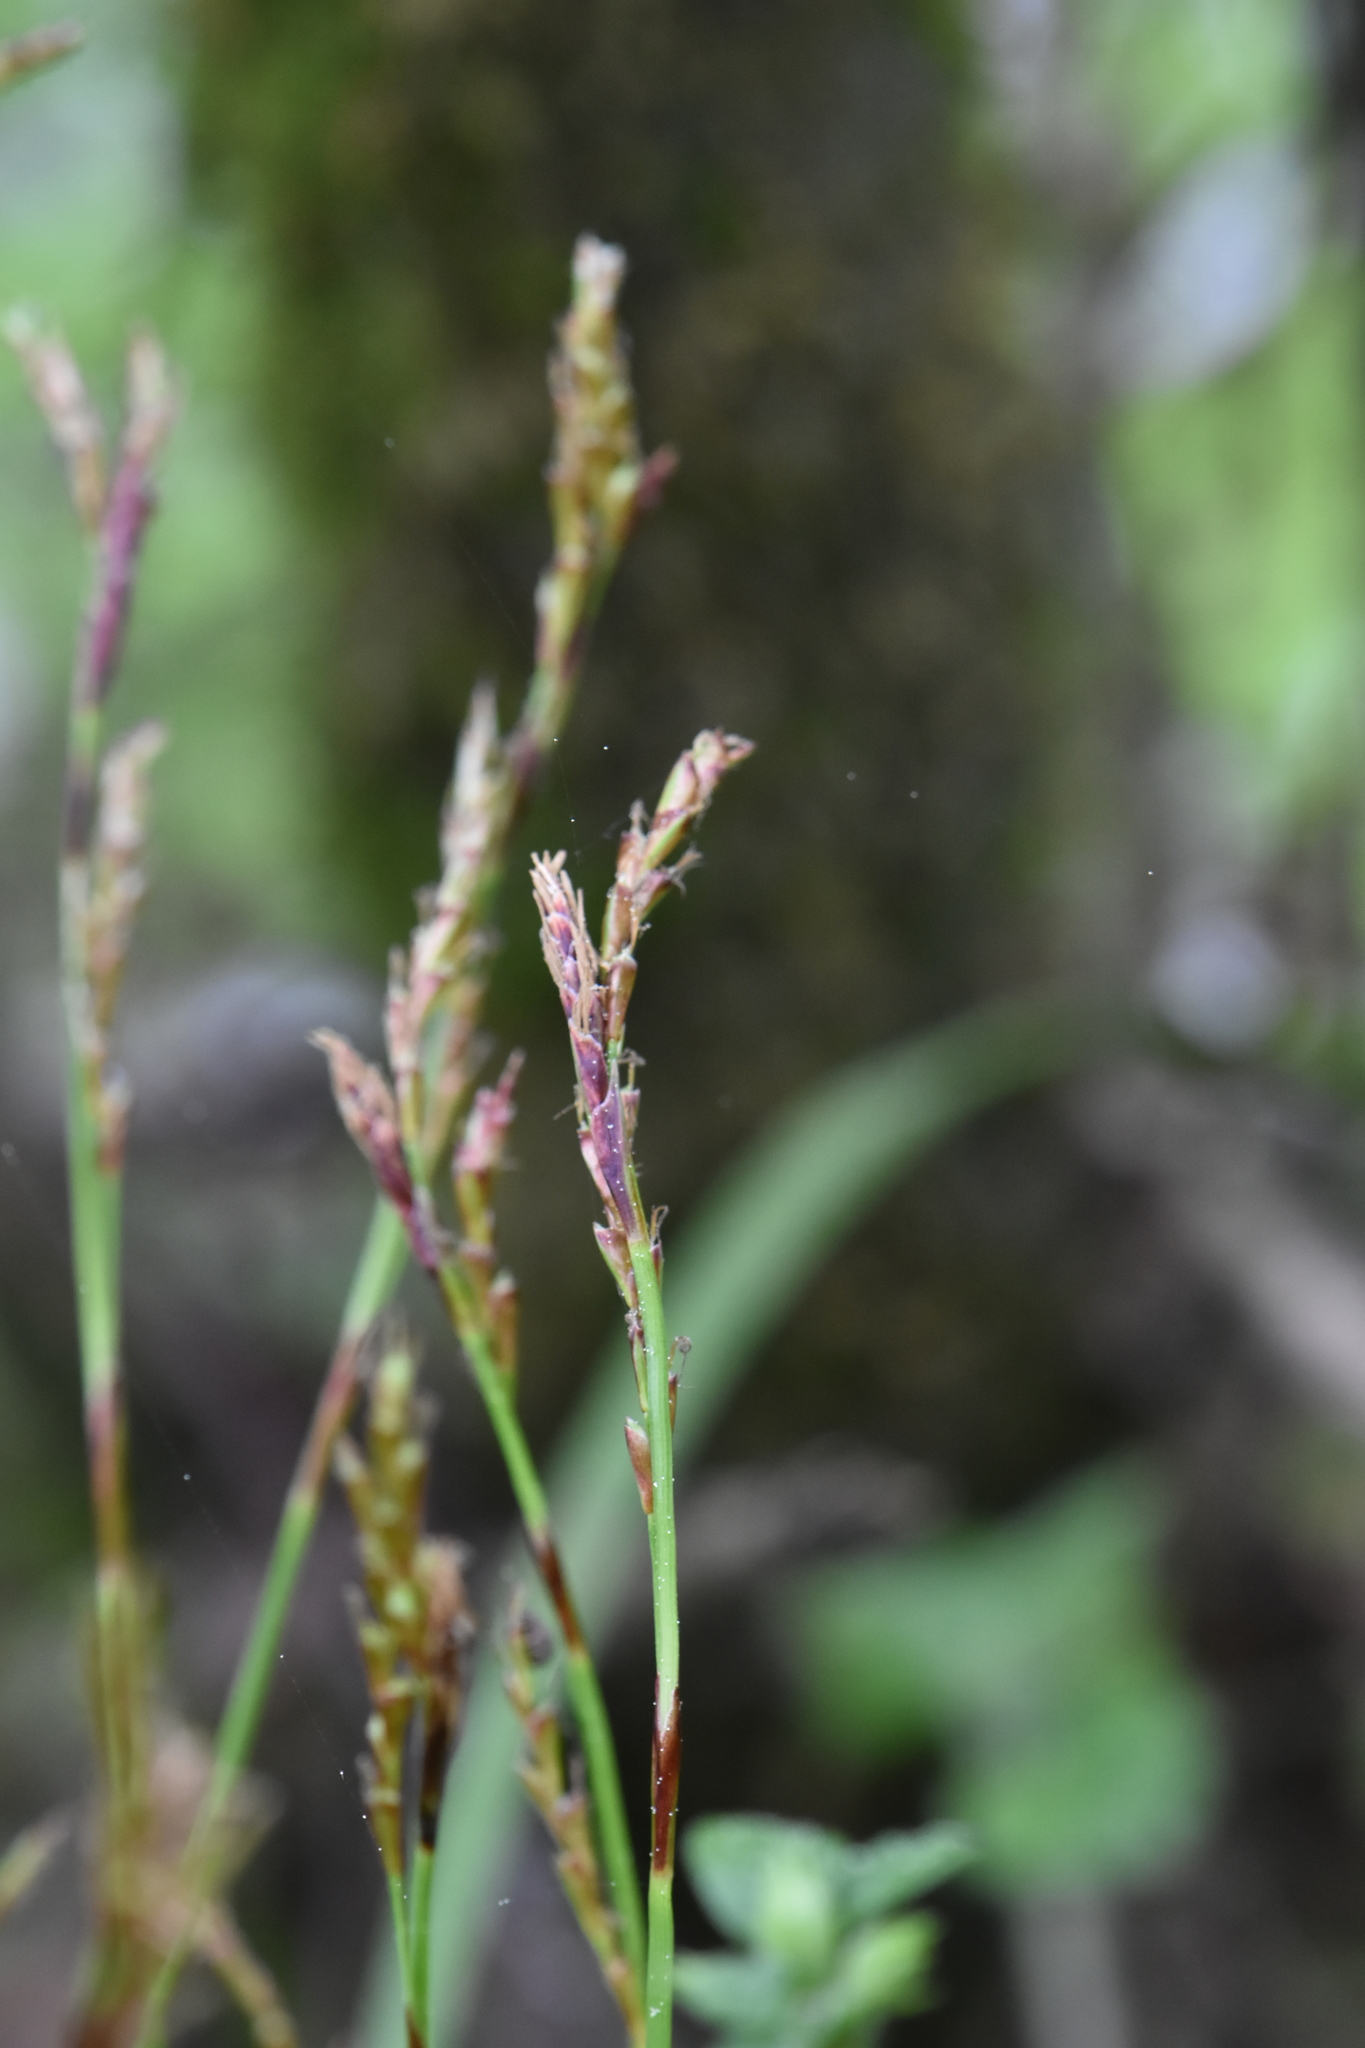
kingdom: Plantae
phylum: Tracheophyta
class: Liliopsida
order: Poales
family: Cyperaceae
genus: Carex
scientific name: Carex digitata
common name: Fingered sedge
